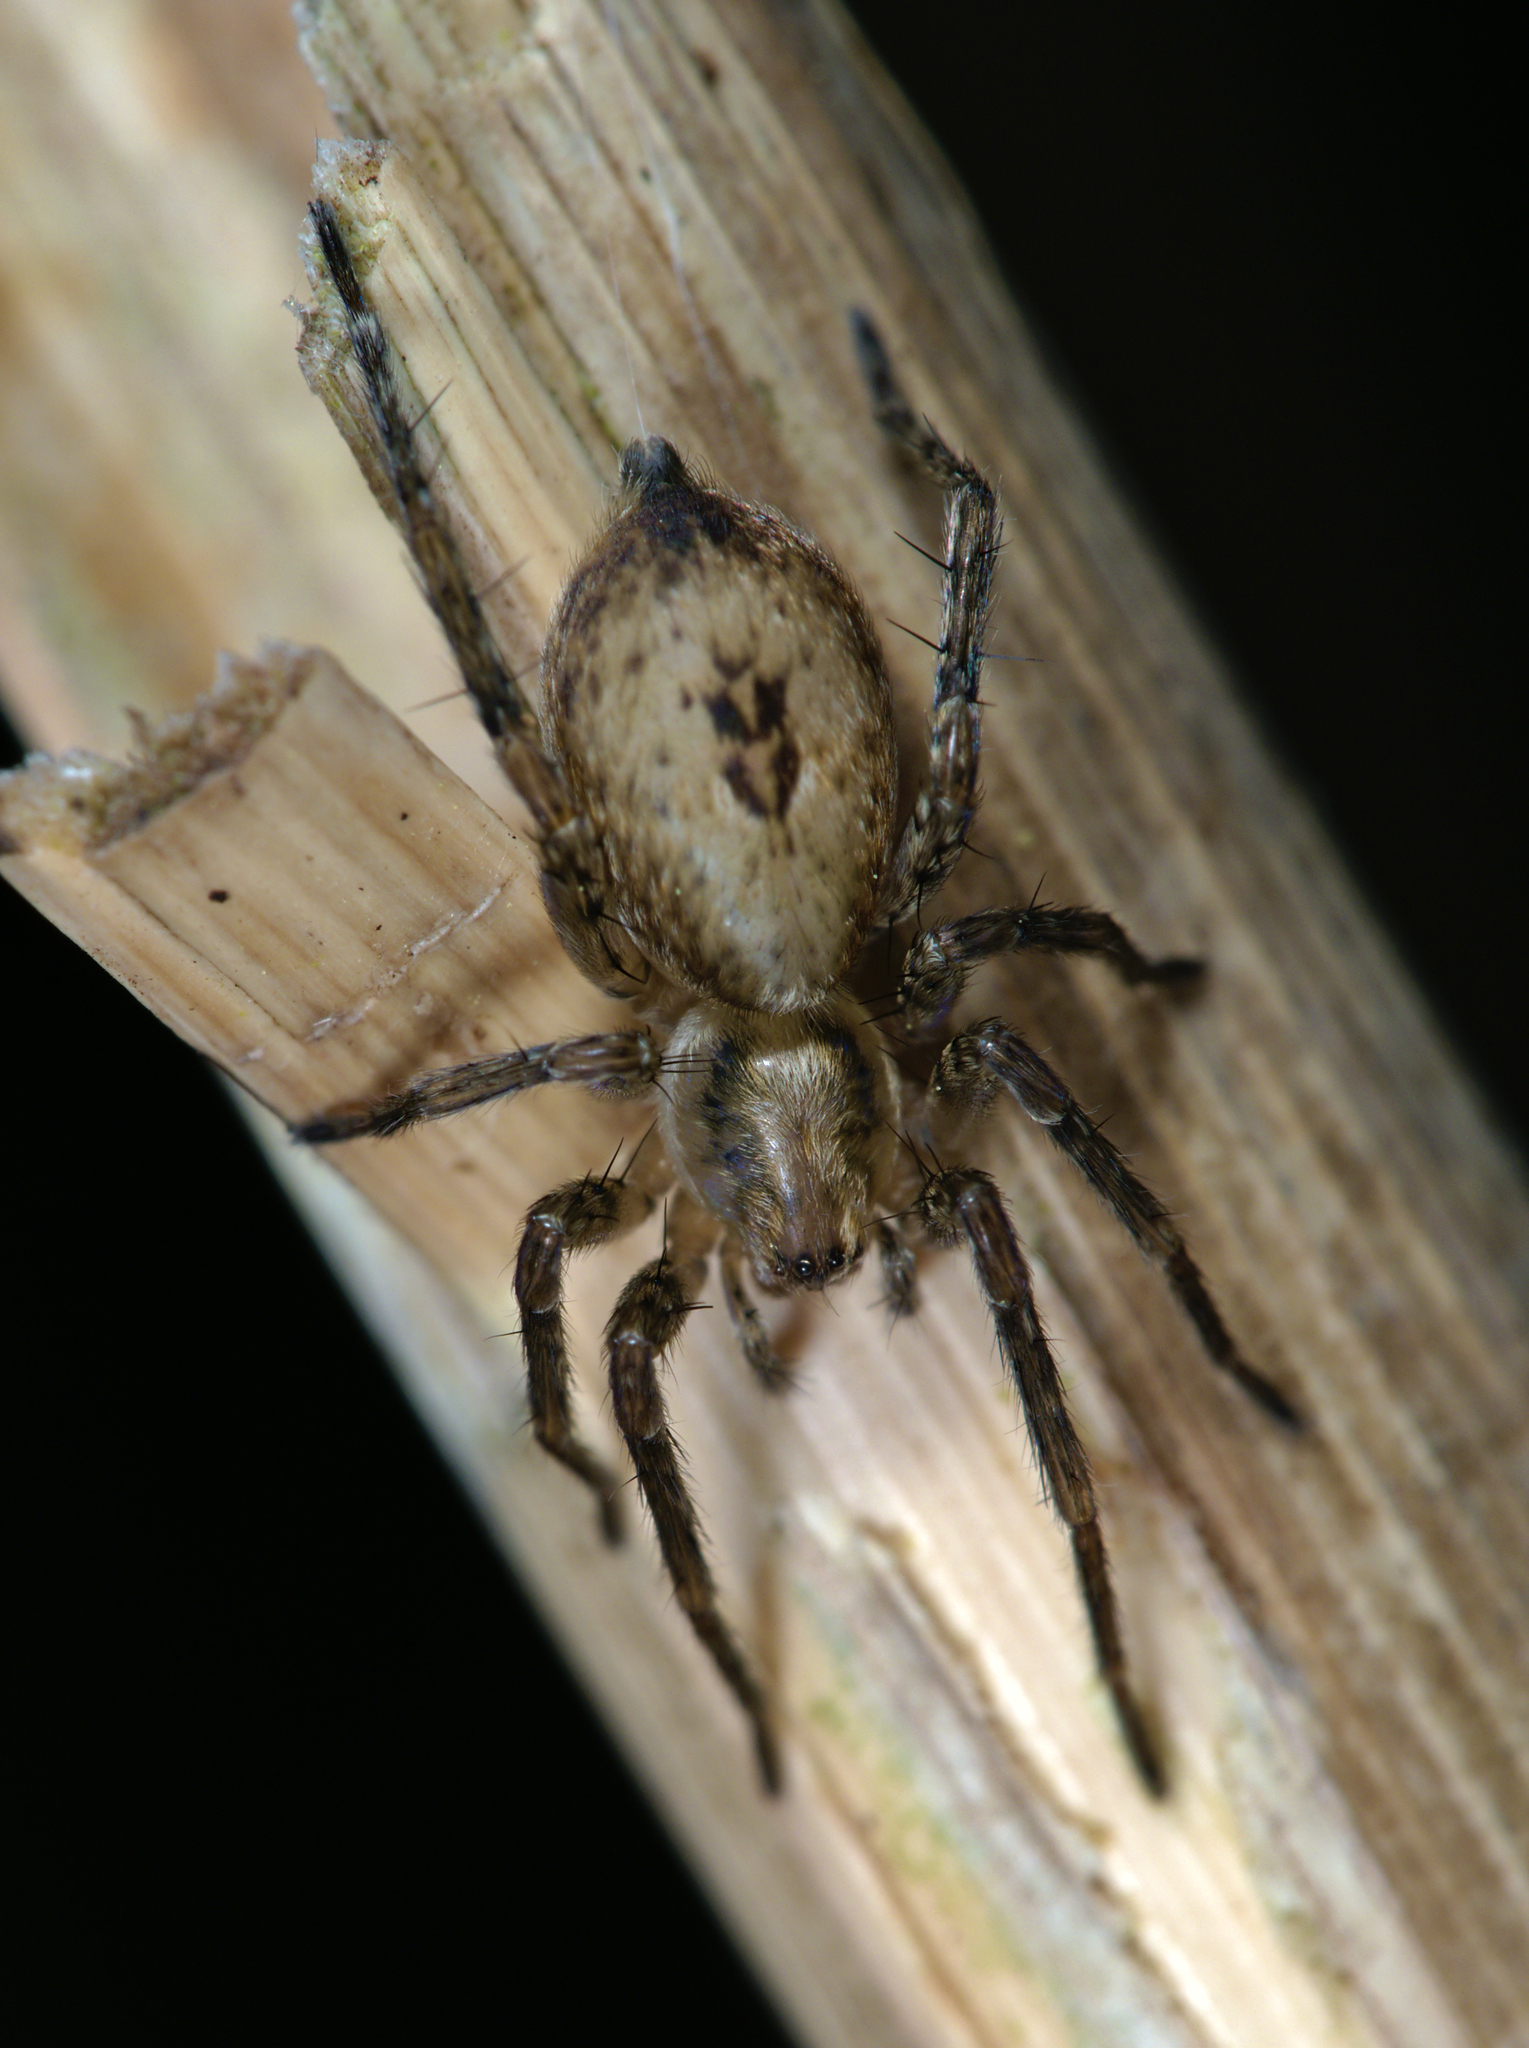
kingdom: Animalia
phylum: Arthropoda
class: Arachnida
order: Araneae
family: Anyphaenidae
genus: Anyphaena
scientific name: Anyphaena accentuata
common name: Buzzing spider
